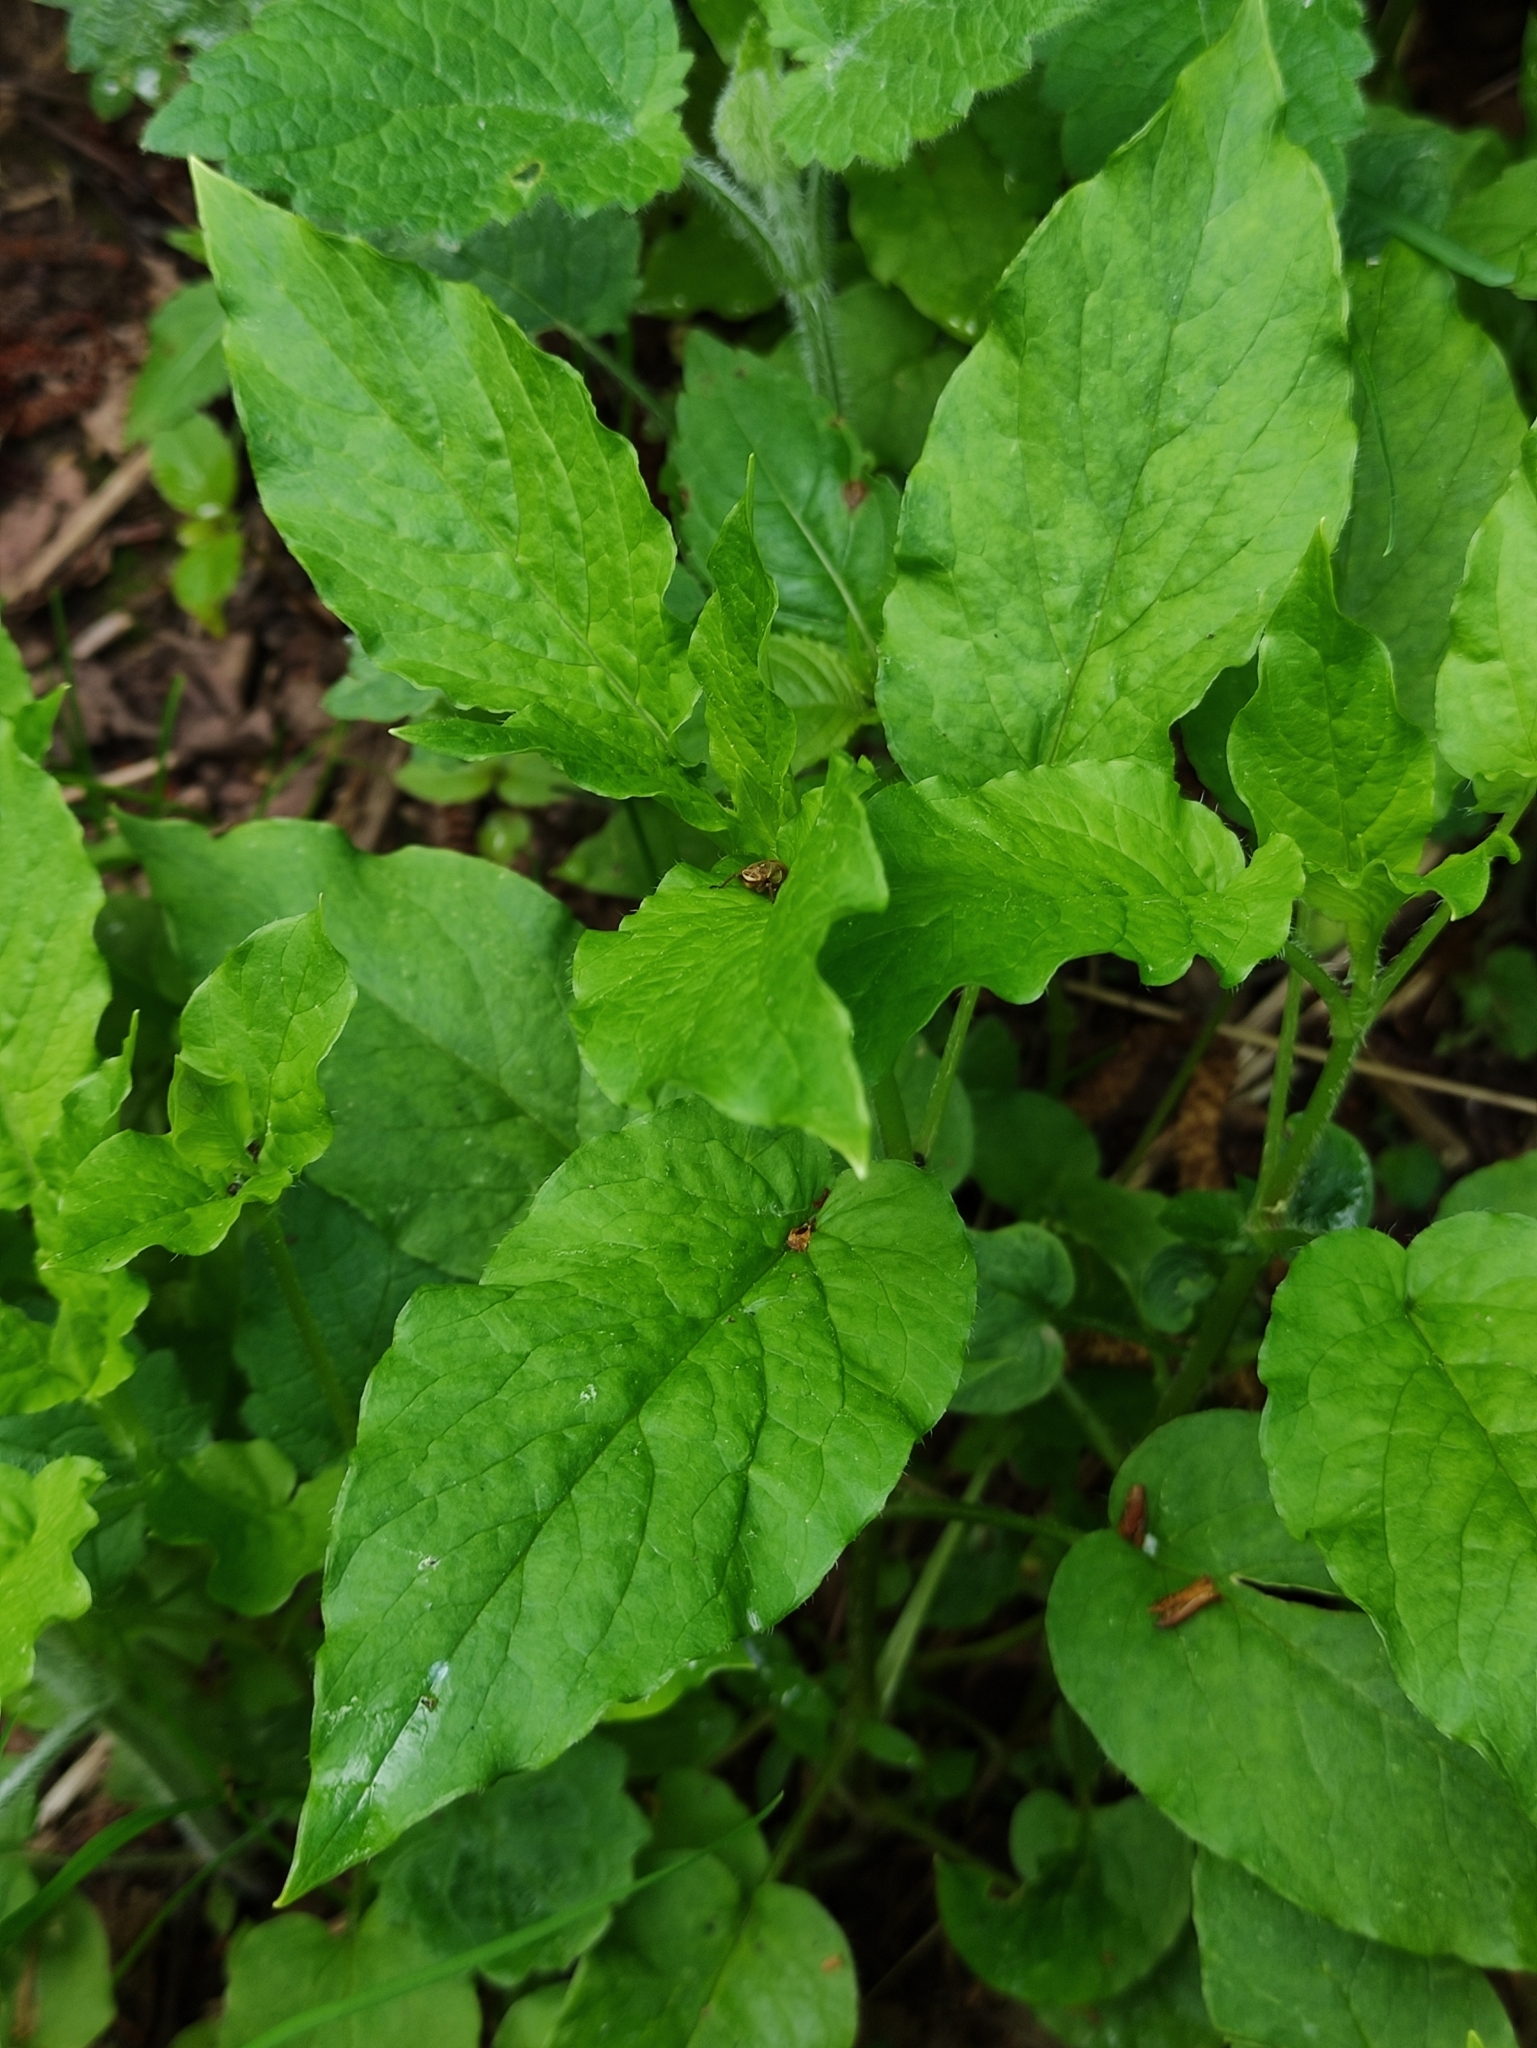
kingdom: Plantae
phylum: Tracheophyta
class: Magnoliopsida
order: Caryophyllales
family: Caryophyllaceae
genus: Stellaria
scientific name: Stellaria nemorum
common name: Wood stitchwort
